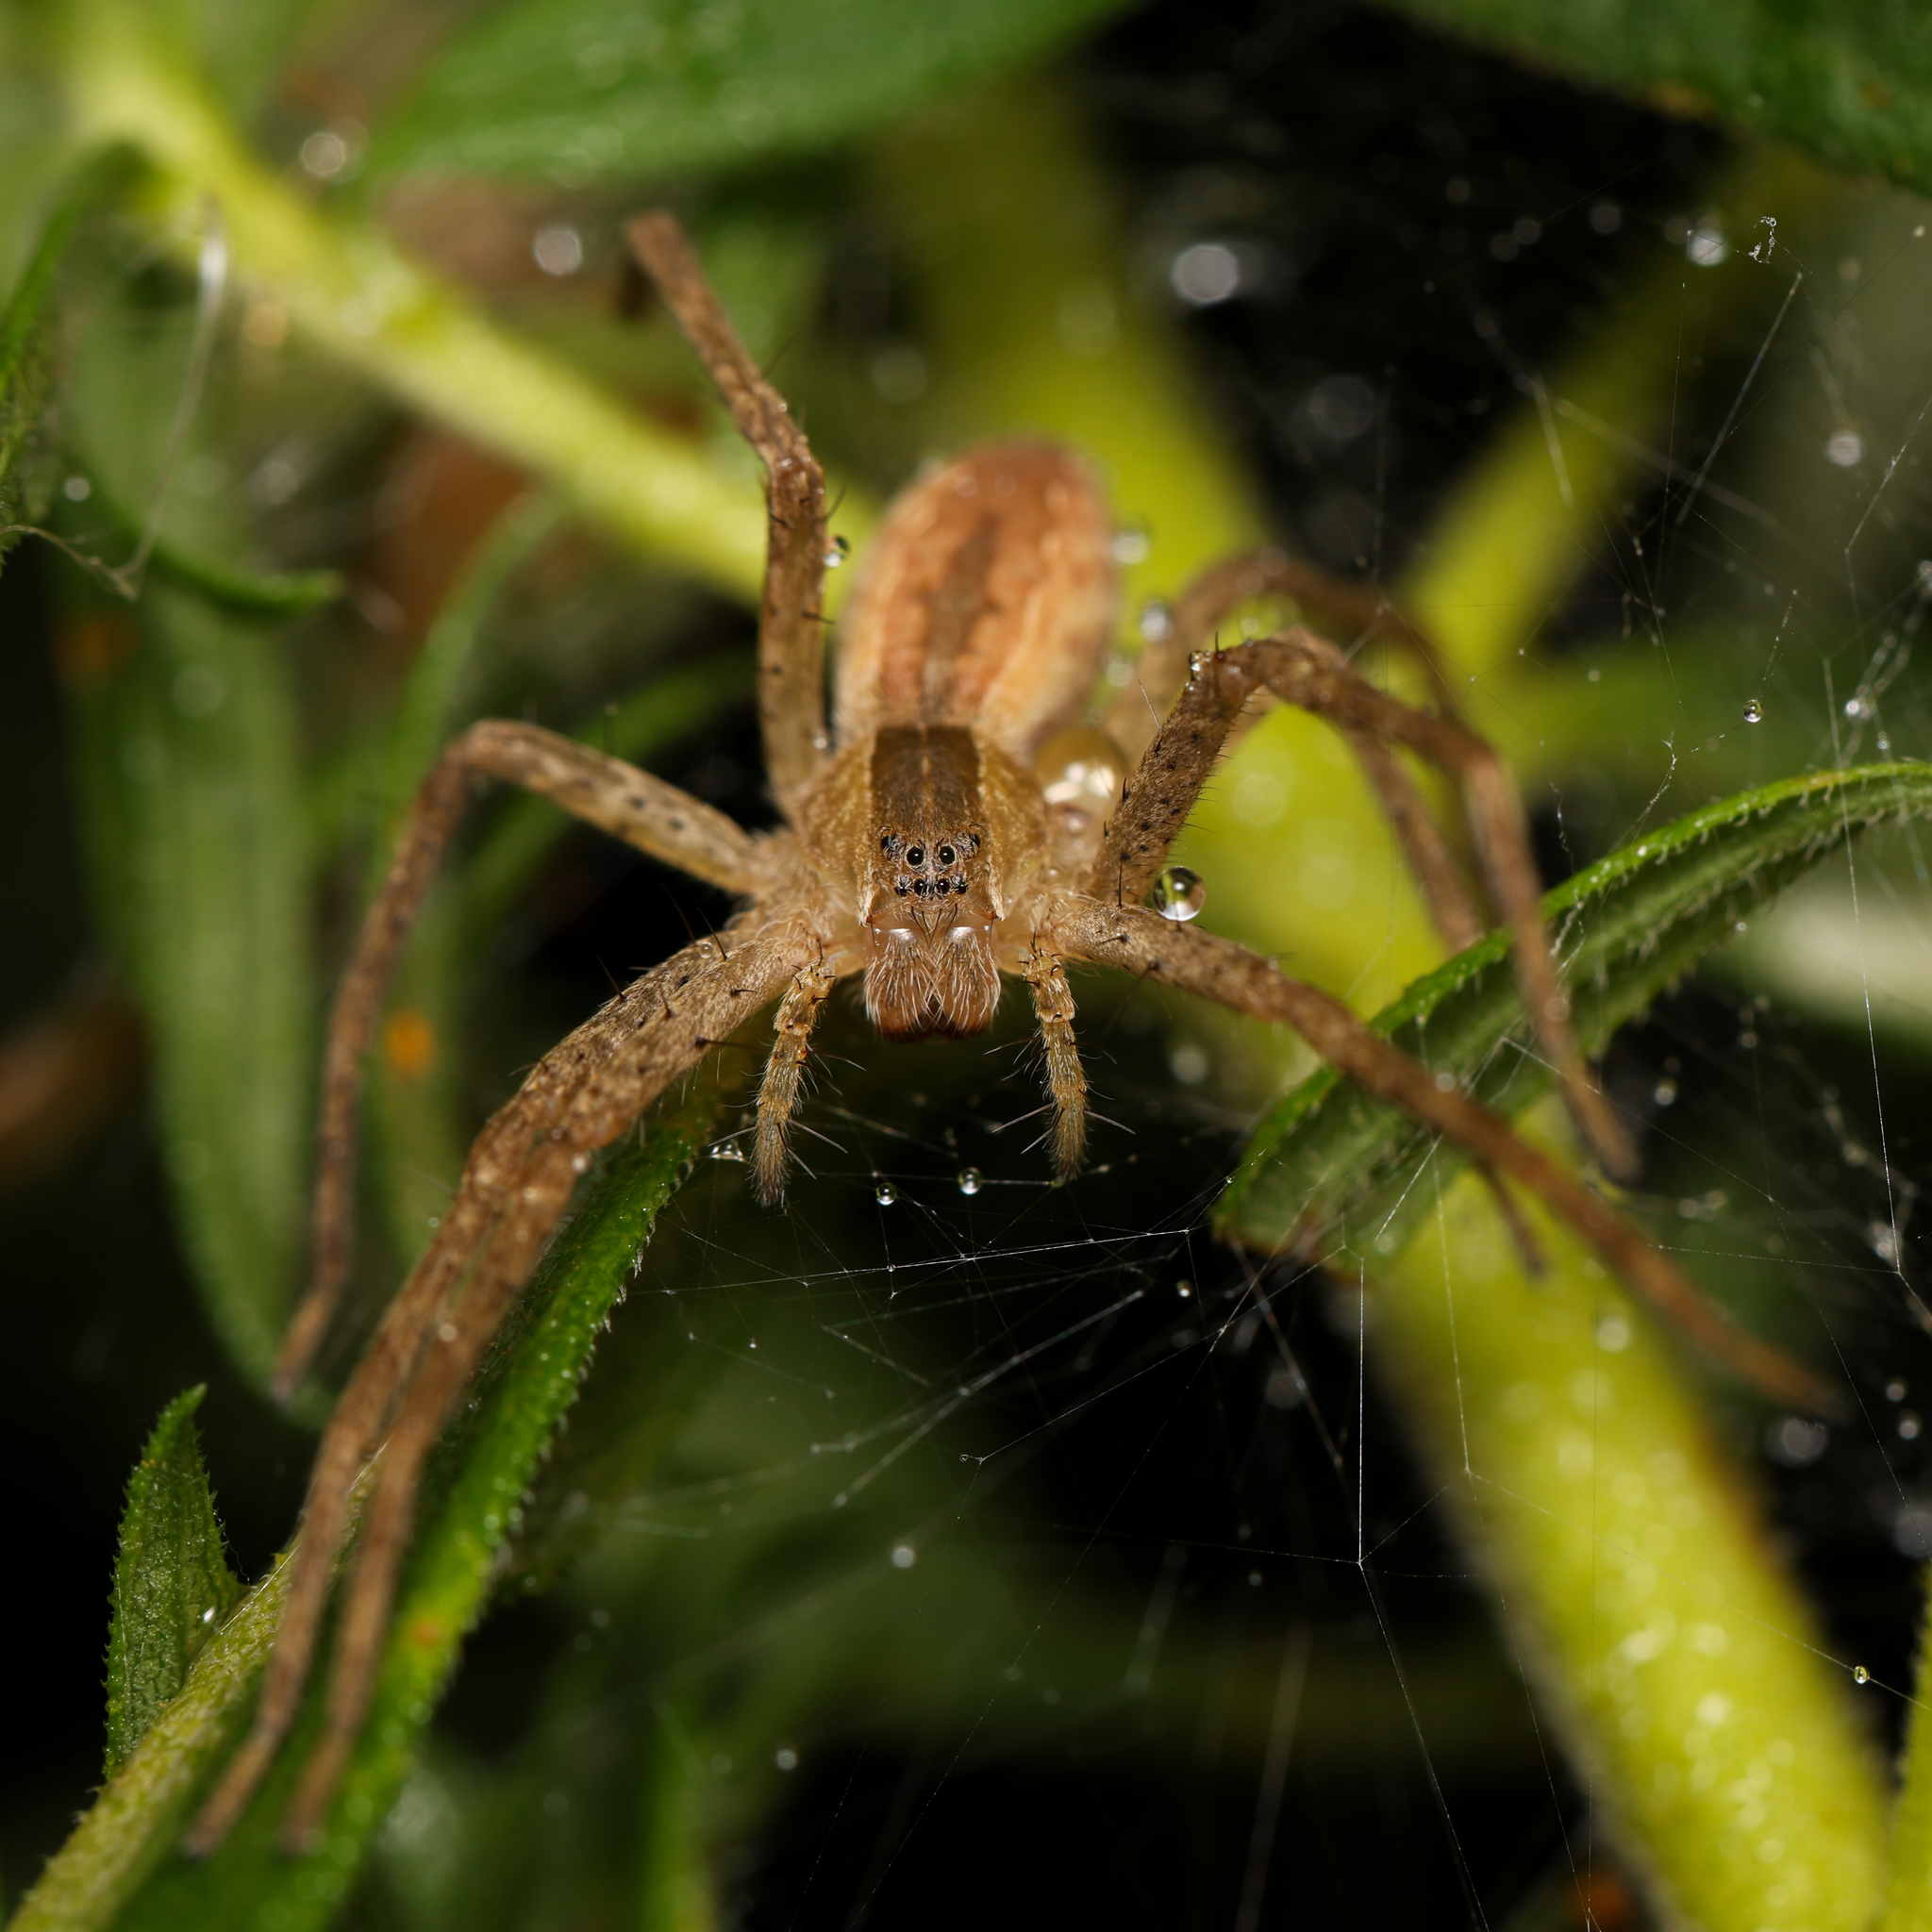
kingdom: Animalia
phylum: Arthropoda
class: Arachnida
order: Araneae
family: Pisauridae
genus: Pisaurina
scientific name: Pisaurina mira
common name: American nursery web spider
